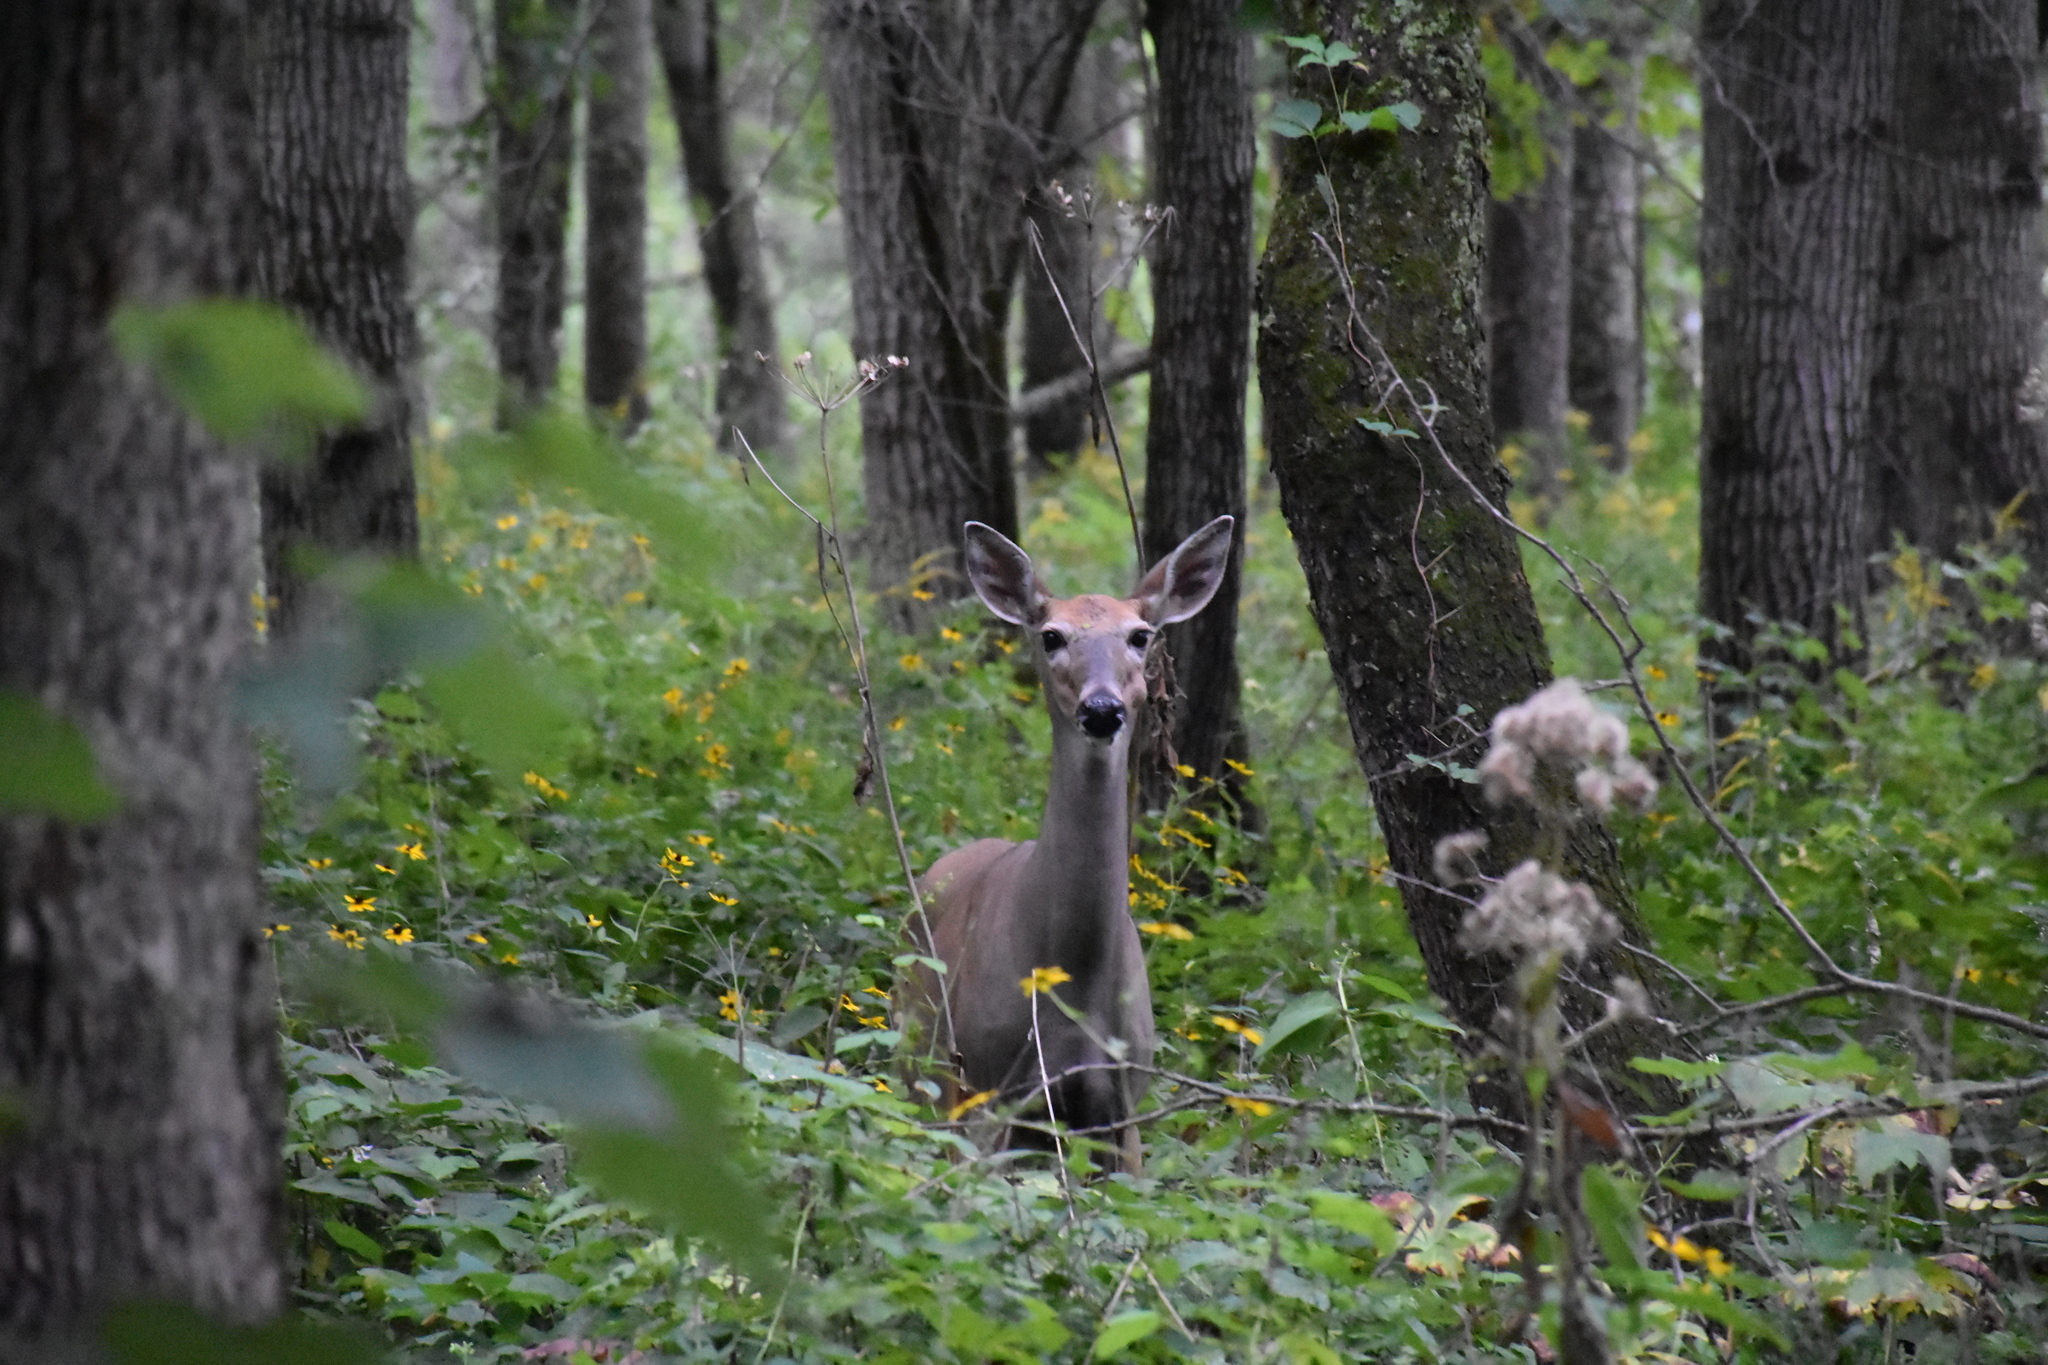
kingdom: Animalia
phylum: Chordata
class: Mammalia
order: Artiodactyla
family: Cervidae
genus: Odocoileus
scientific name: Odocoileus virginianus
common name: White-tailed deer
